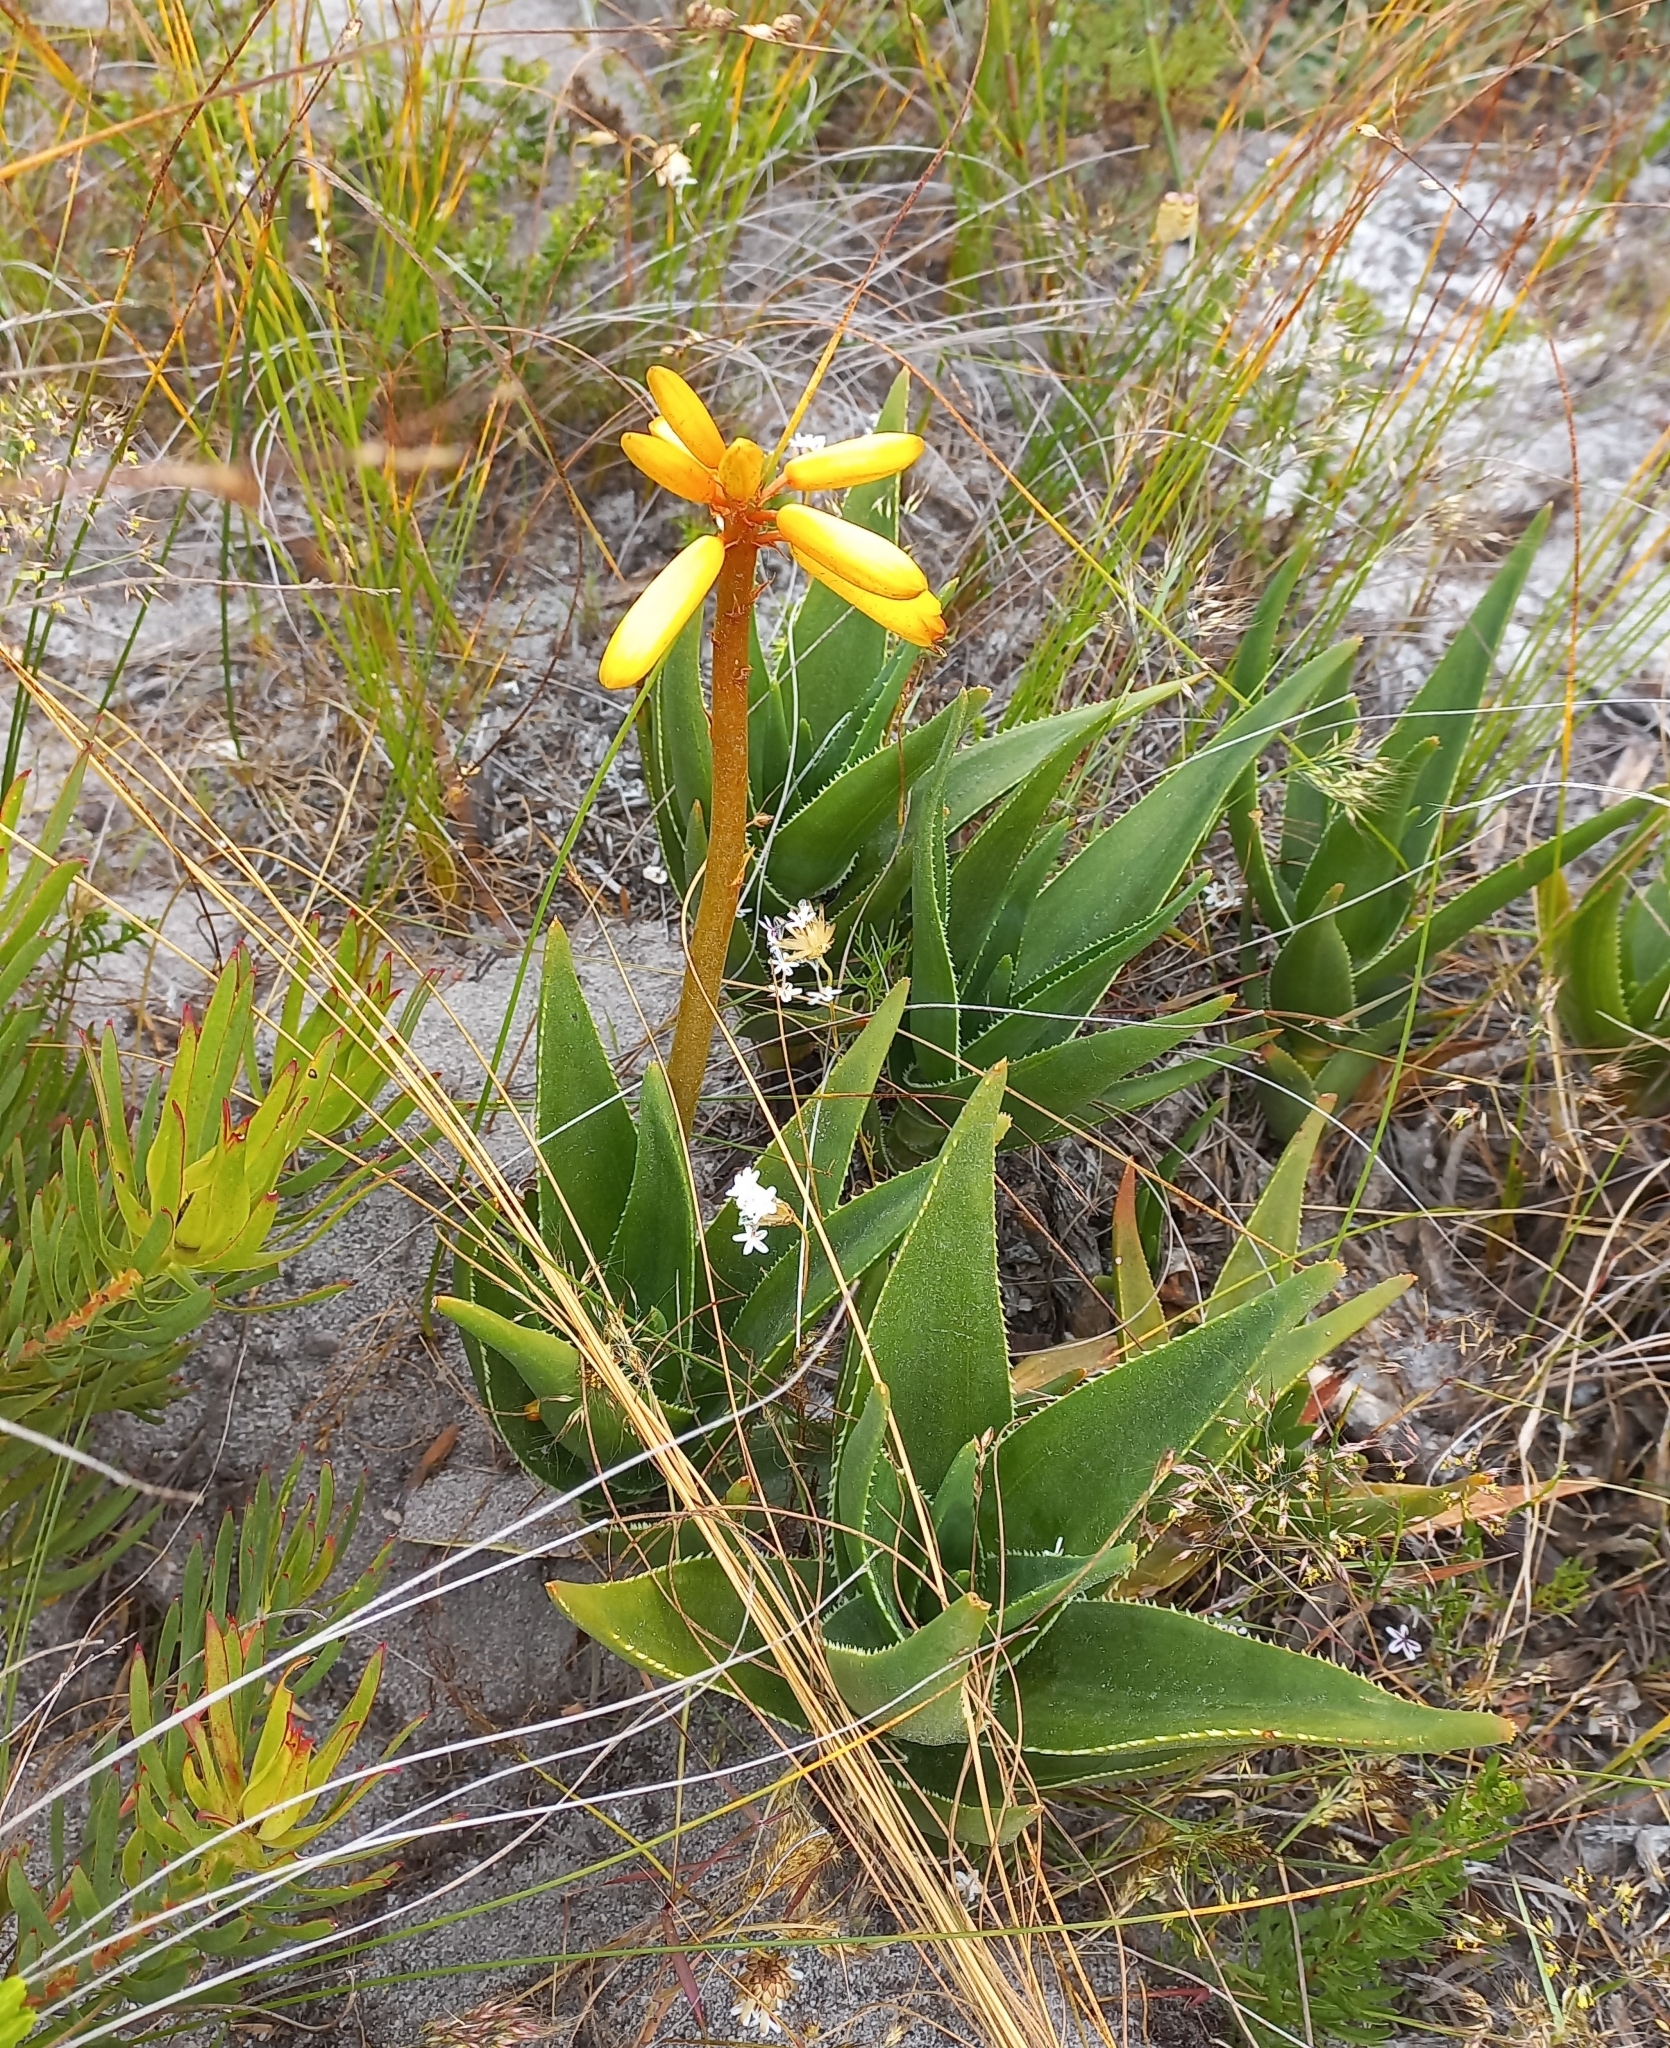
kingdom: Plantae
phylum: Tracheophyta
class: Liliopsida
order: Asparagales
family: Asphodelaceae
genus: Aloiampelos
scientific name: Aloiampelos commixta
